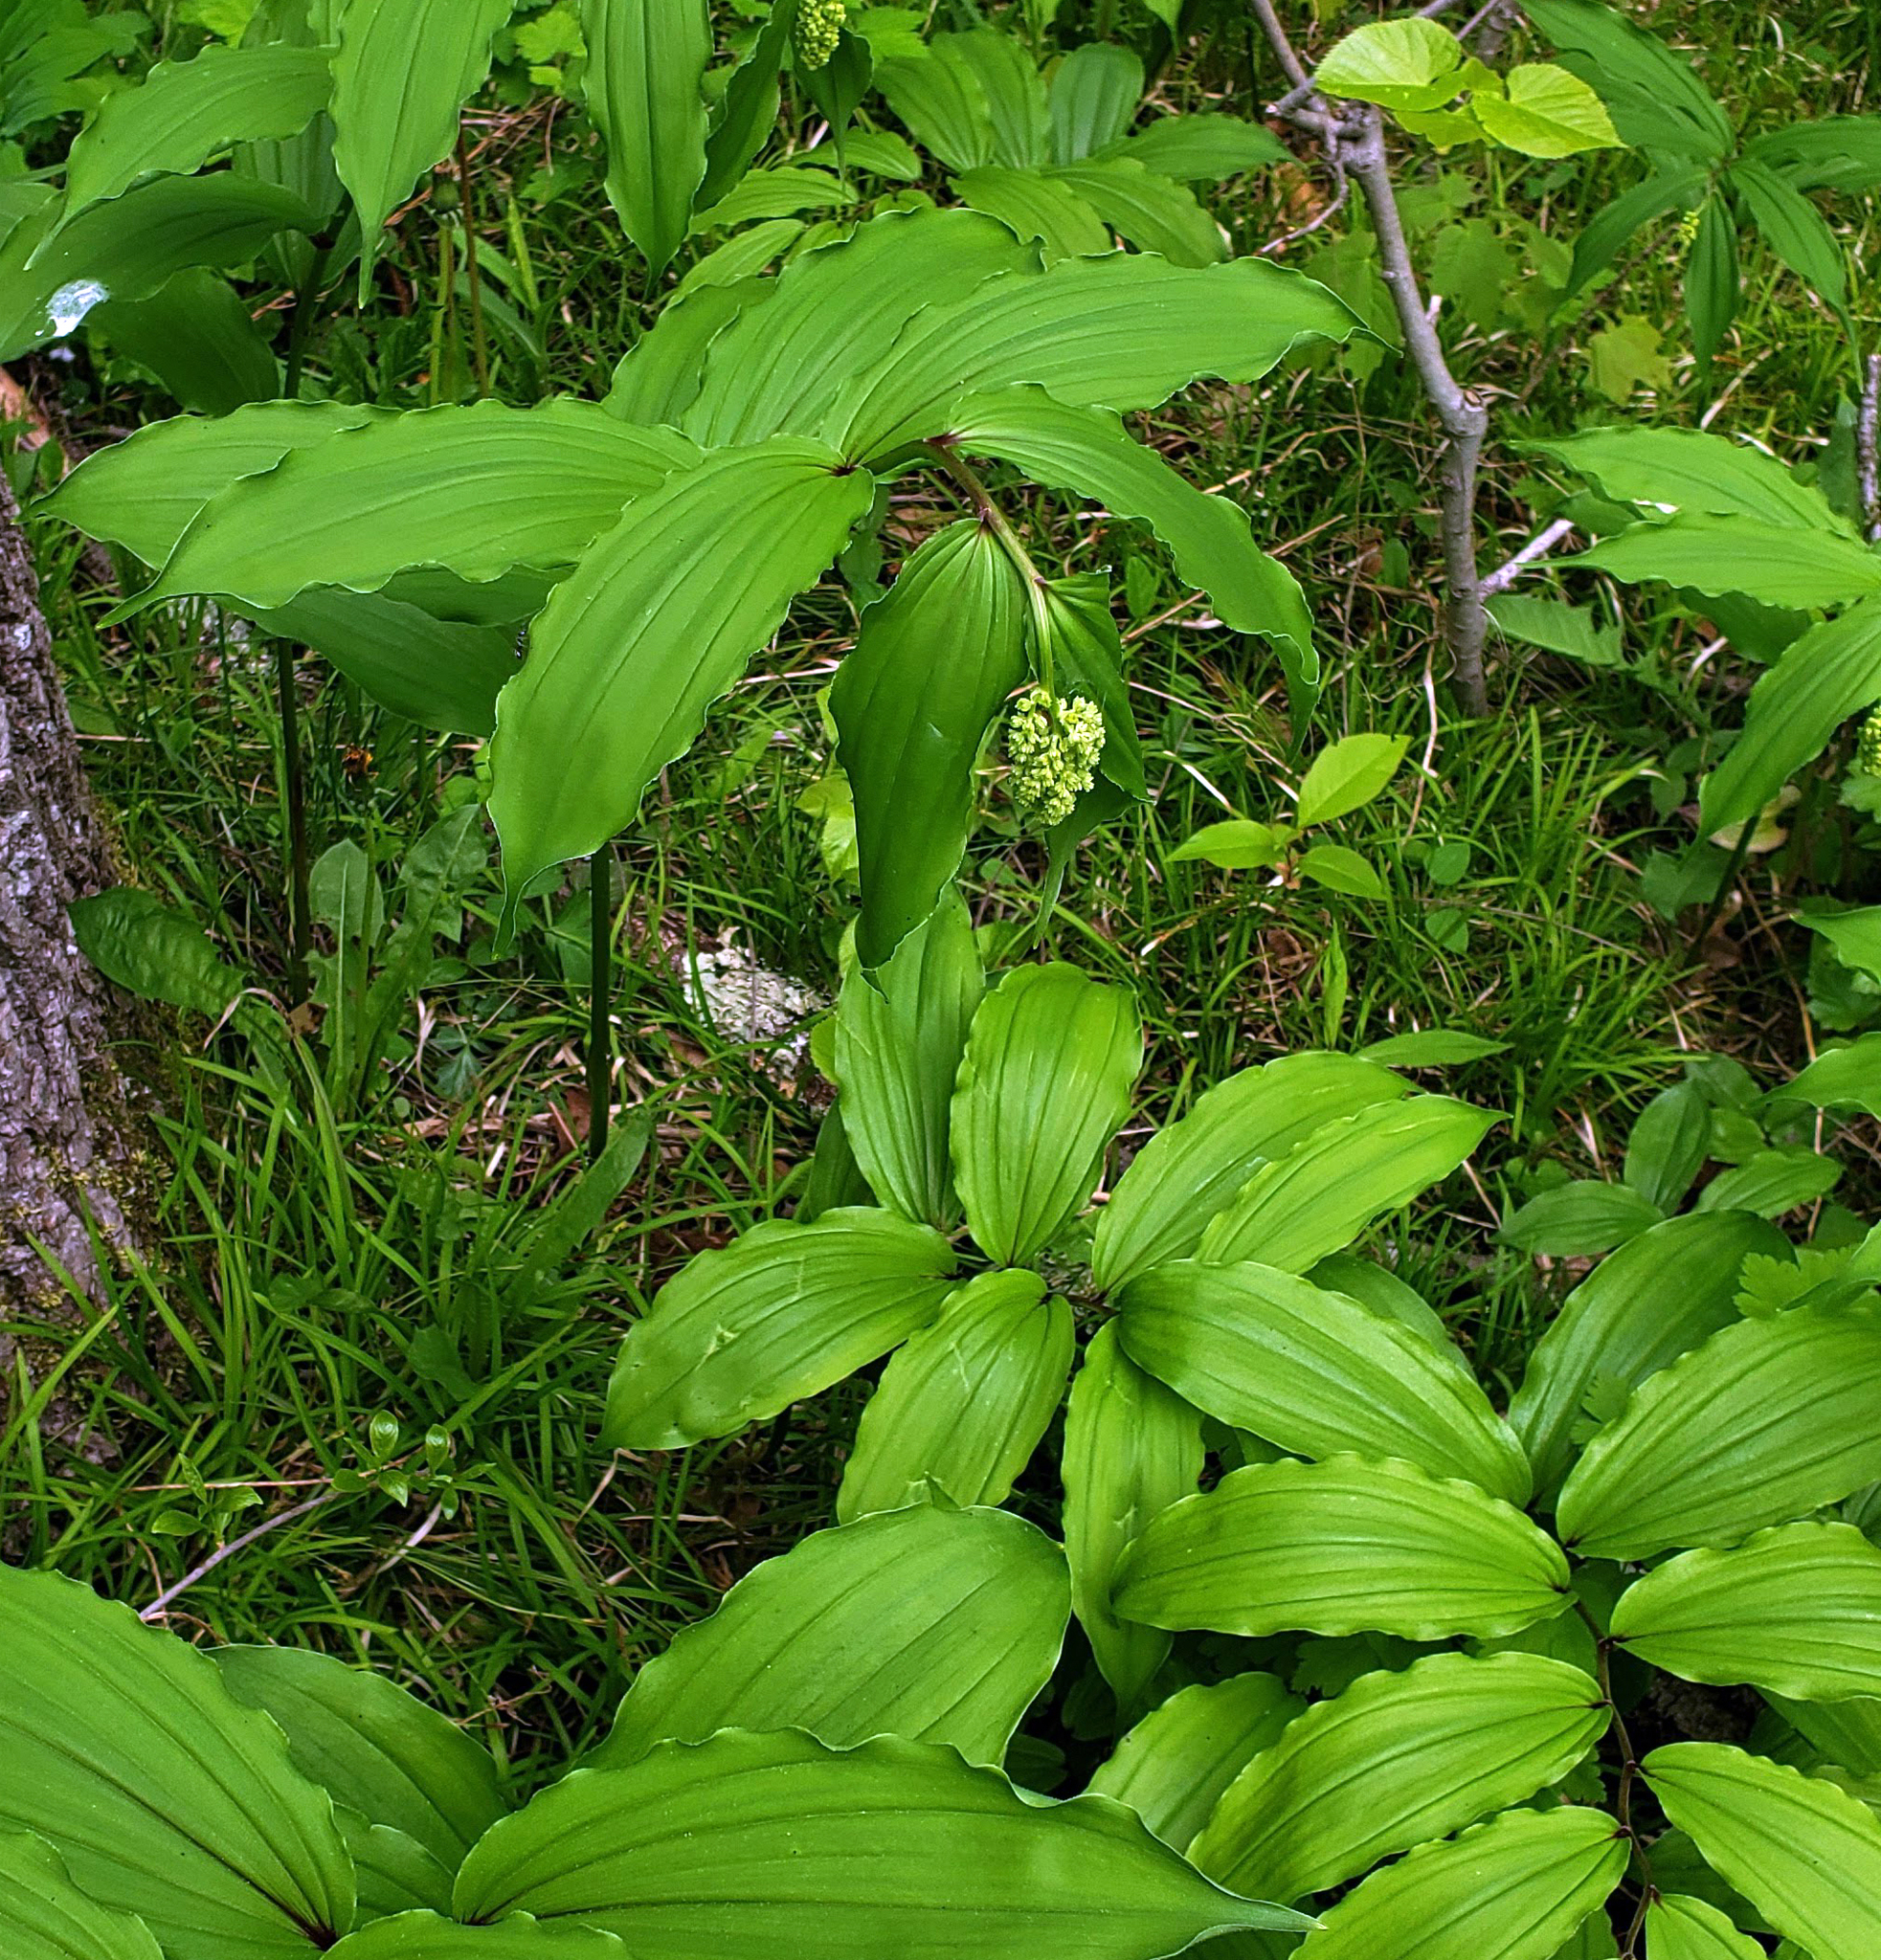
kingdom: Plantae
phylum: Tracheophyta
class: Liliopsida
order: Asparagales
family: Asparagaceae
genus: Maianthemum
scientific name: Maianthemum racemosum
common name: False spikenard
